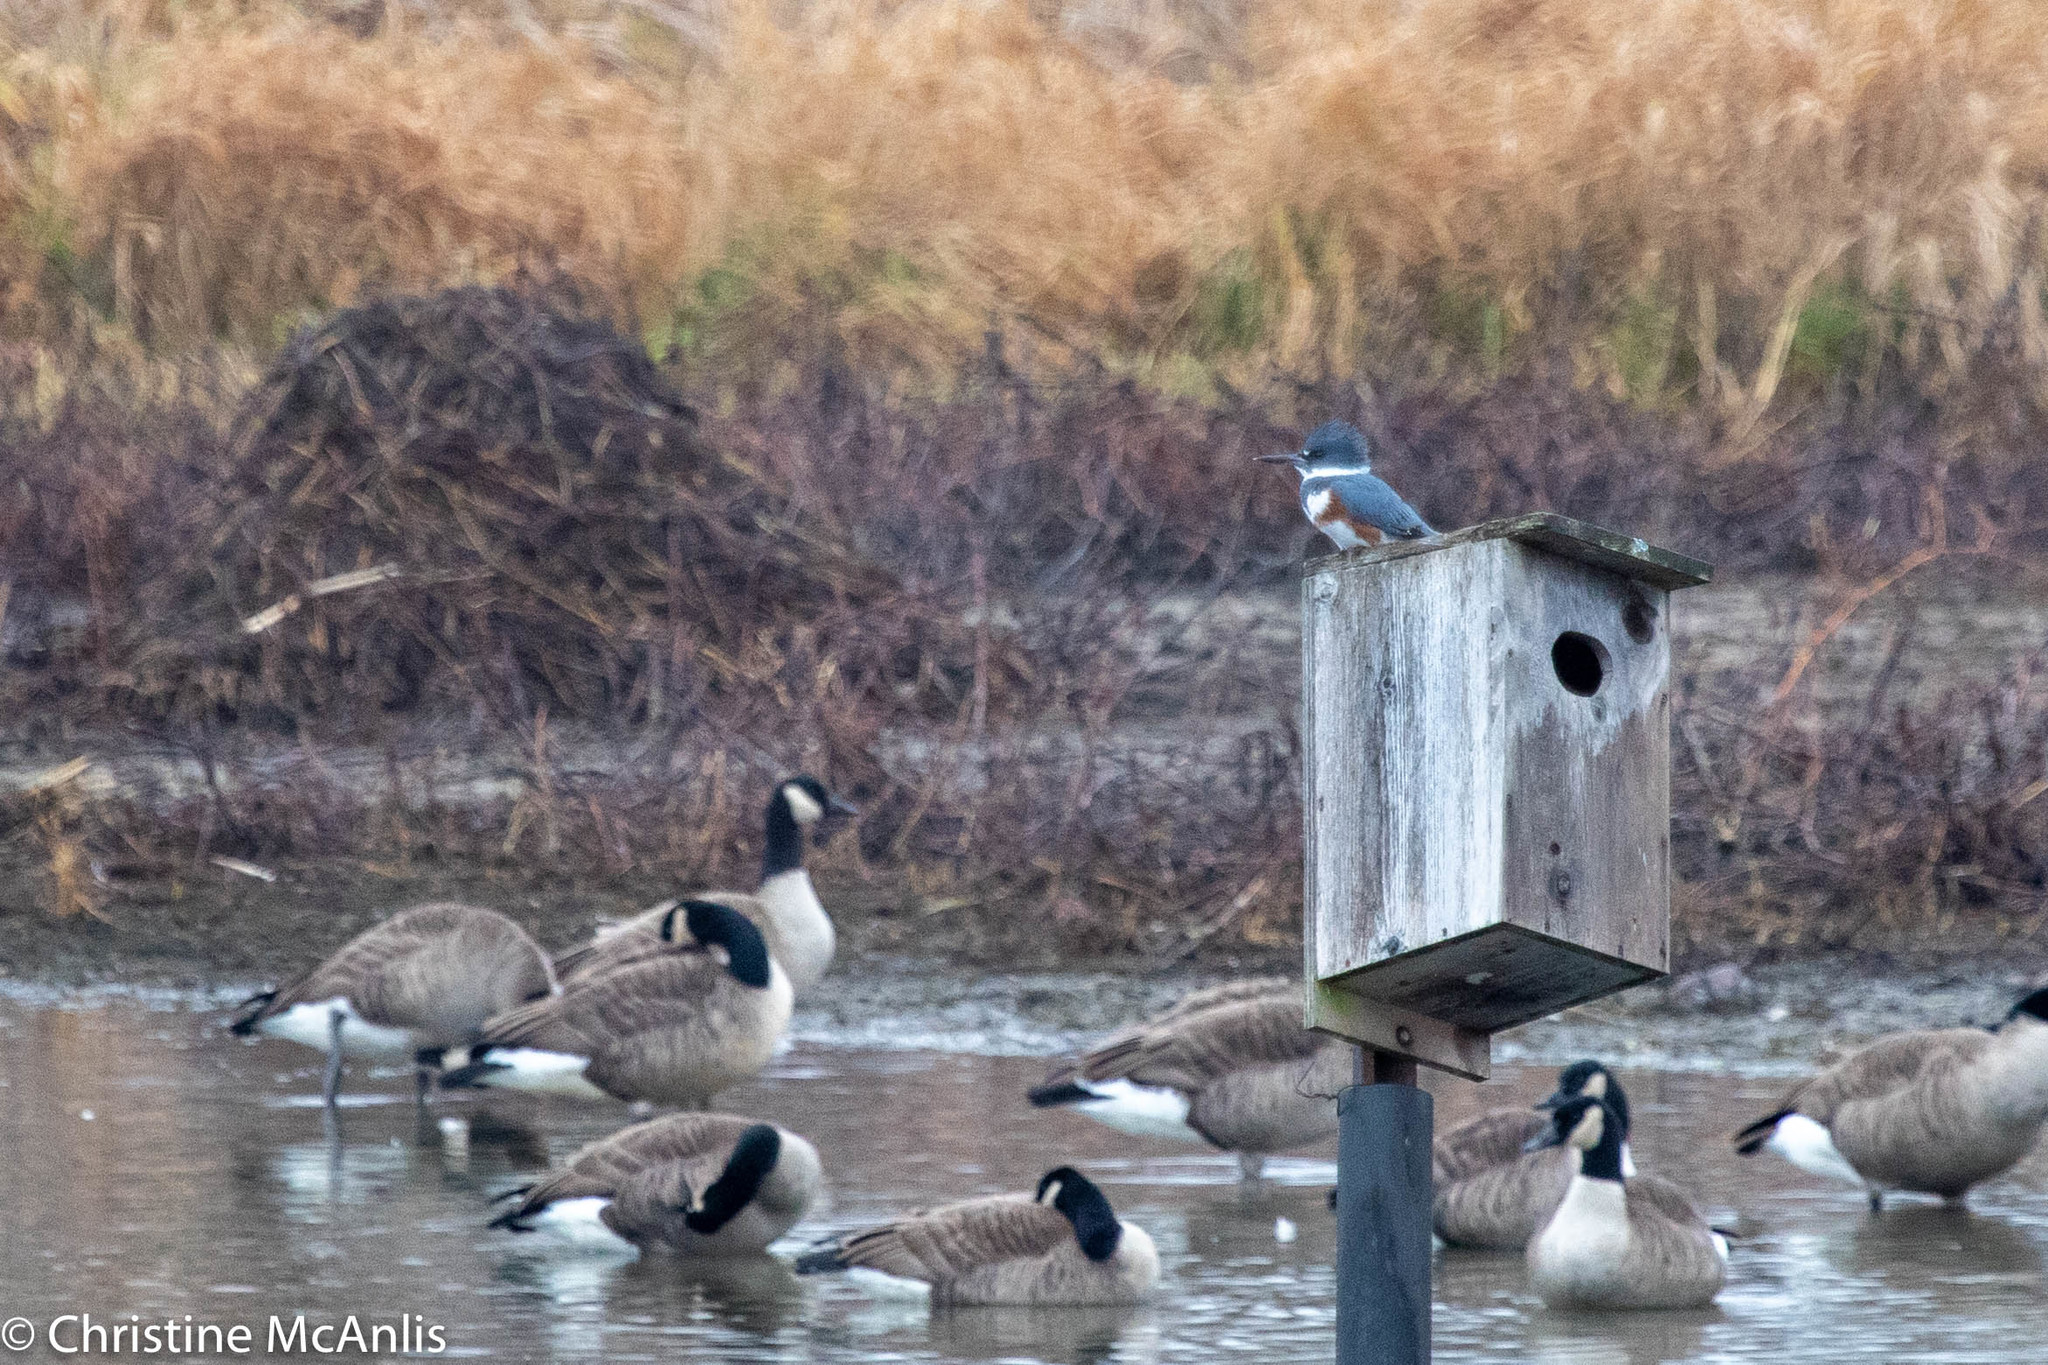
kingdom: Animalia
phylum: Chordata
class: Aves
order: Coraciiformes
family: Alcedinidae
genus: Megaceryle
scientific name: Megaceryle alcyon
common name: Belted kingfisher
